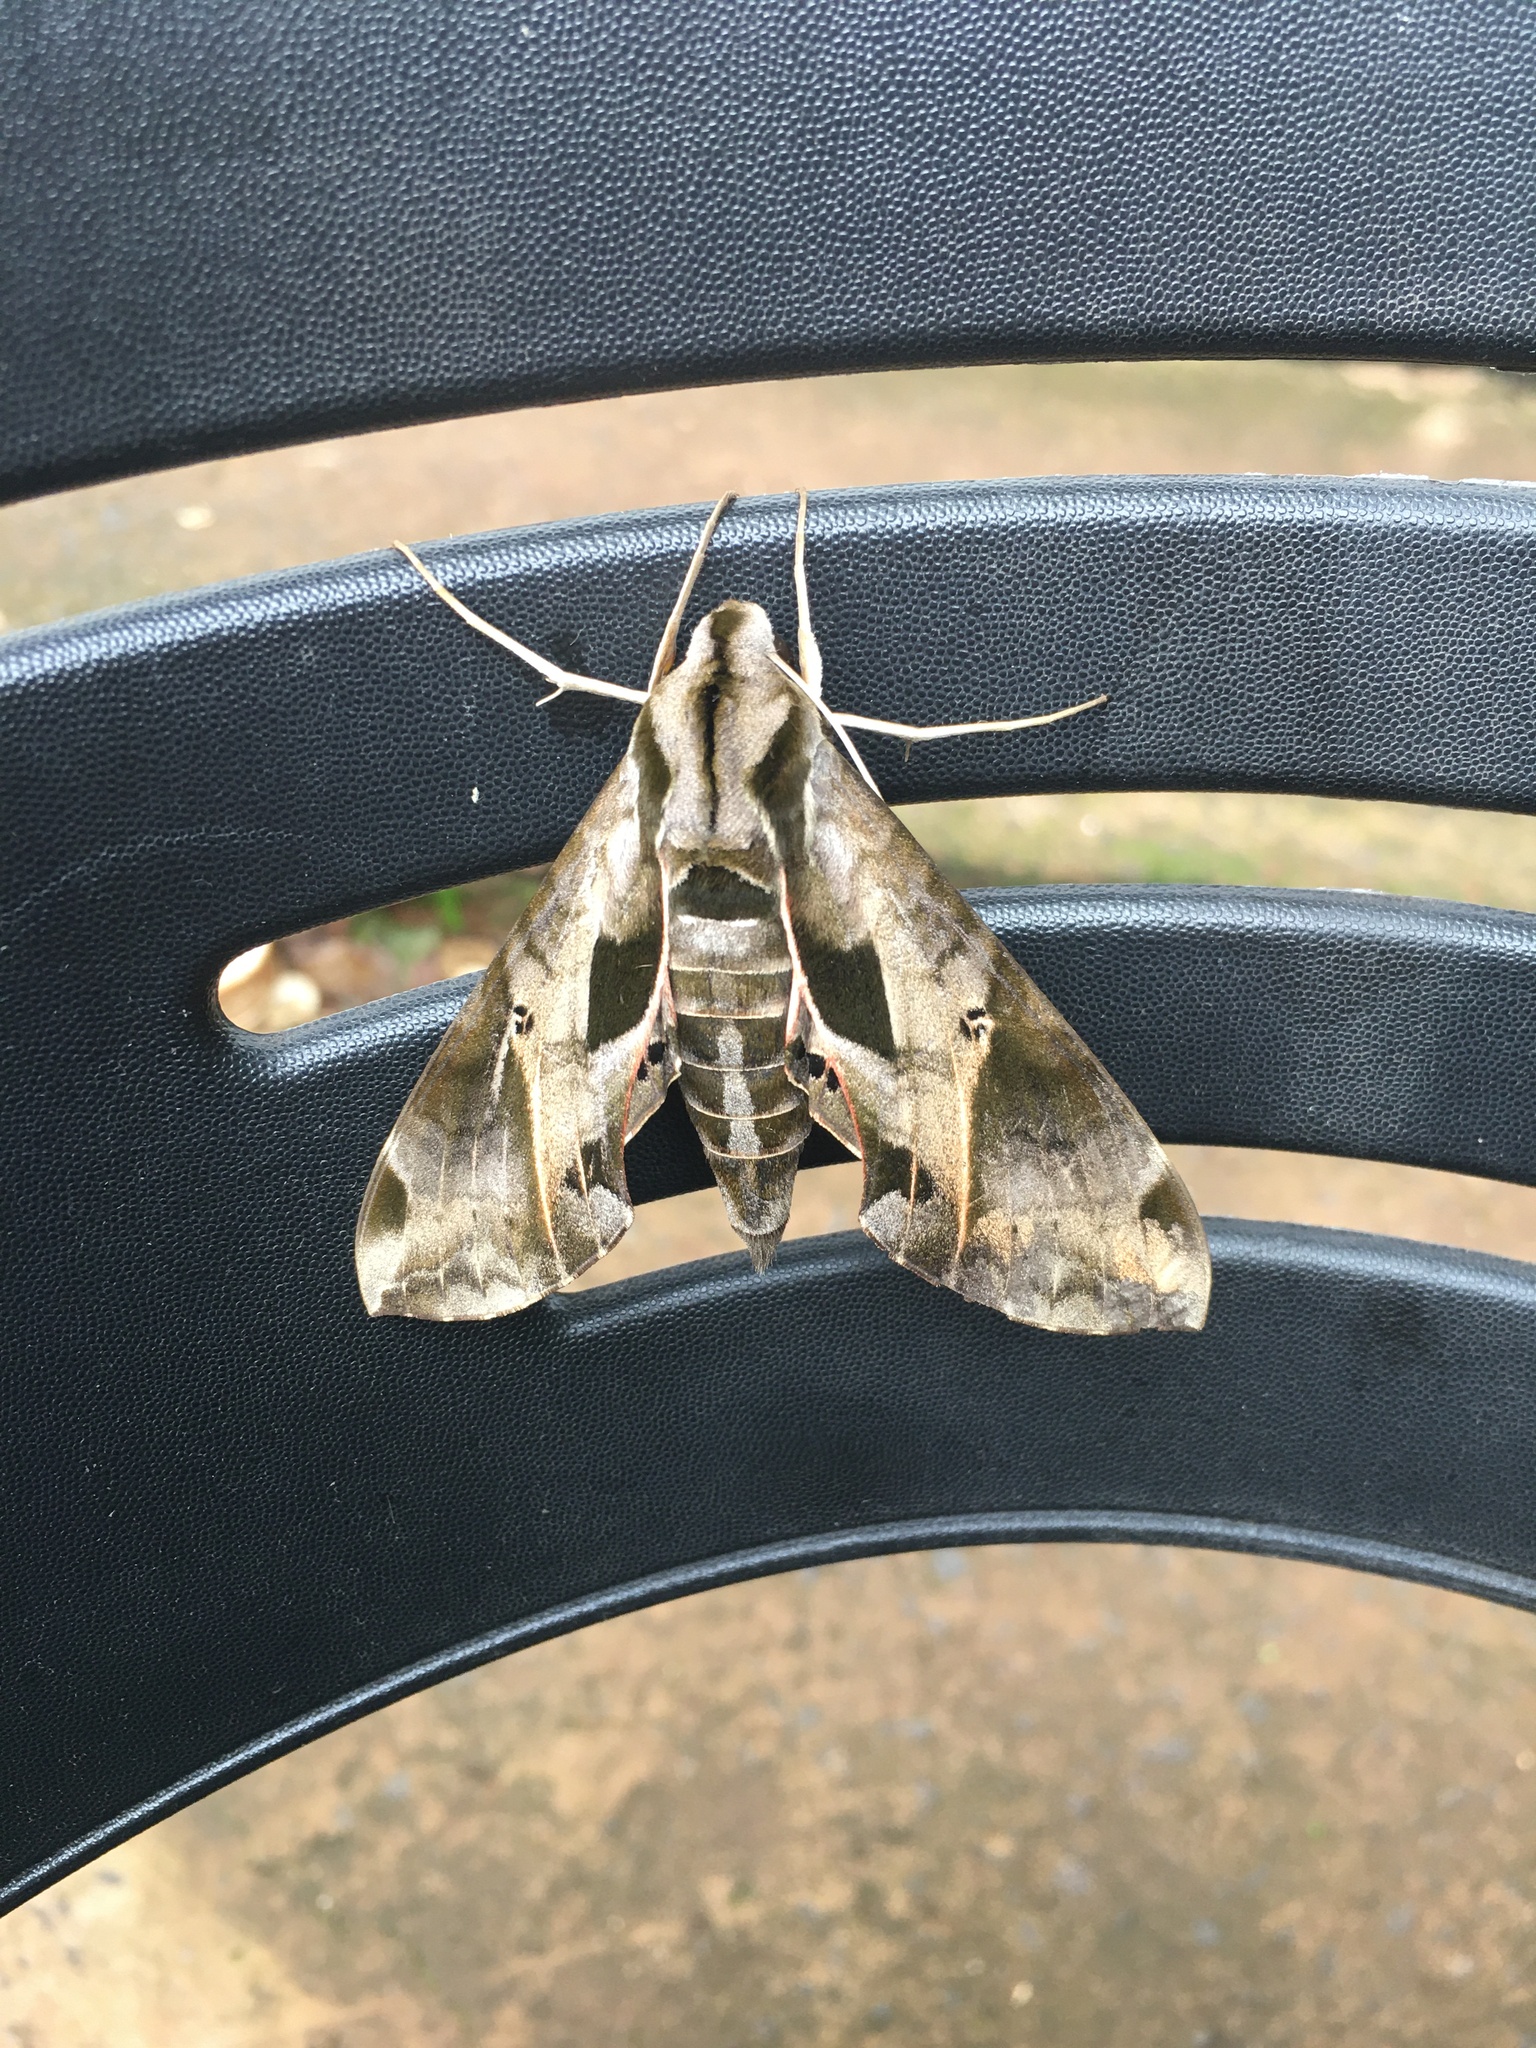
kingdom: Animalia
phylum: Arthropoda
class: Insecta
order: Lepidoptera
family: Sphingidae
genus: Eumorpha
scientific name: Eumorpha analis
